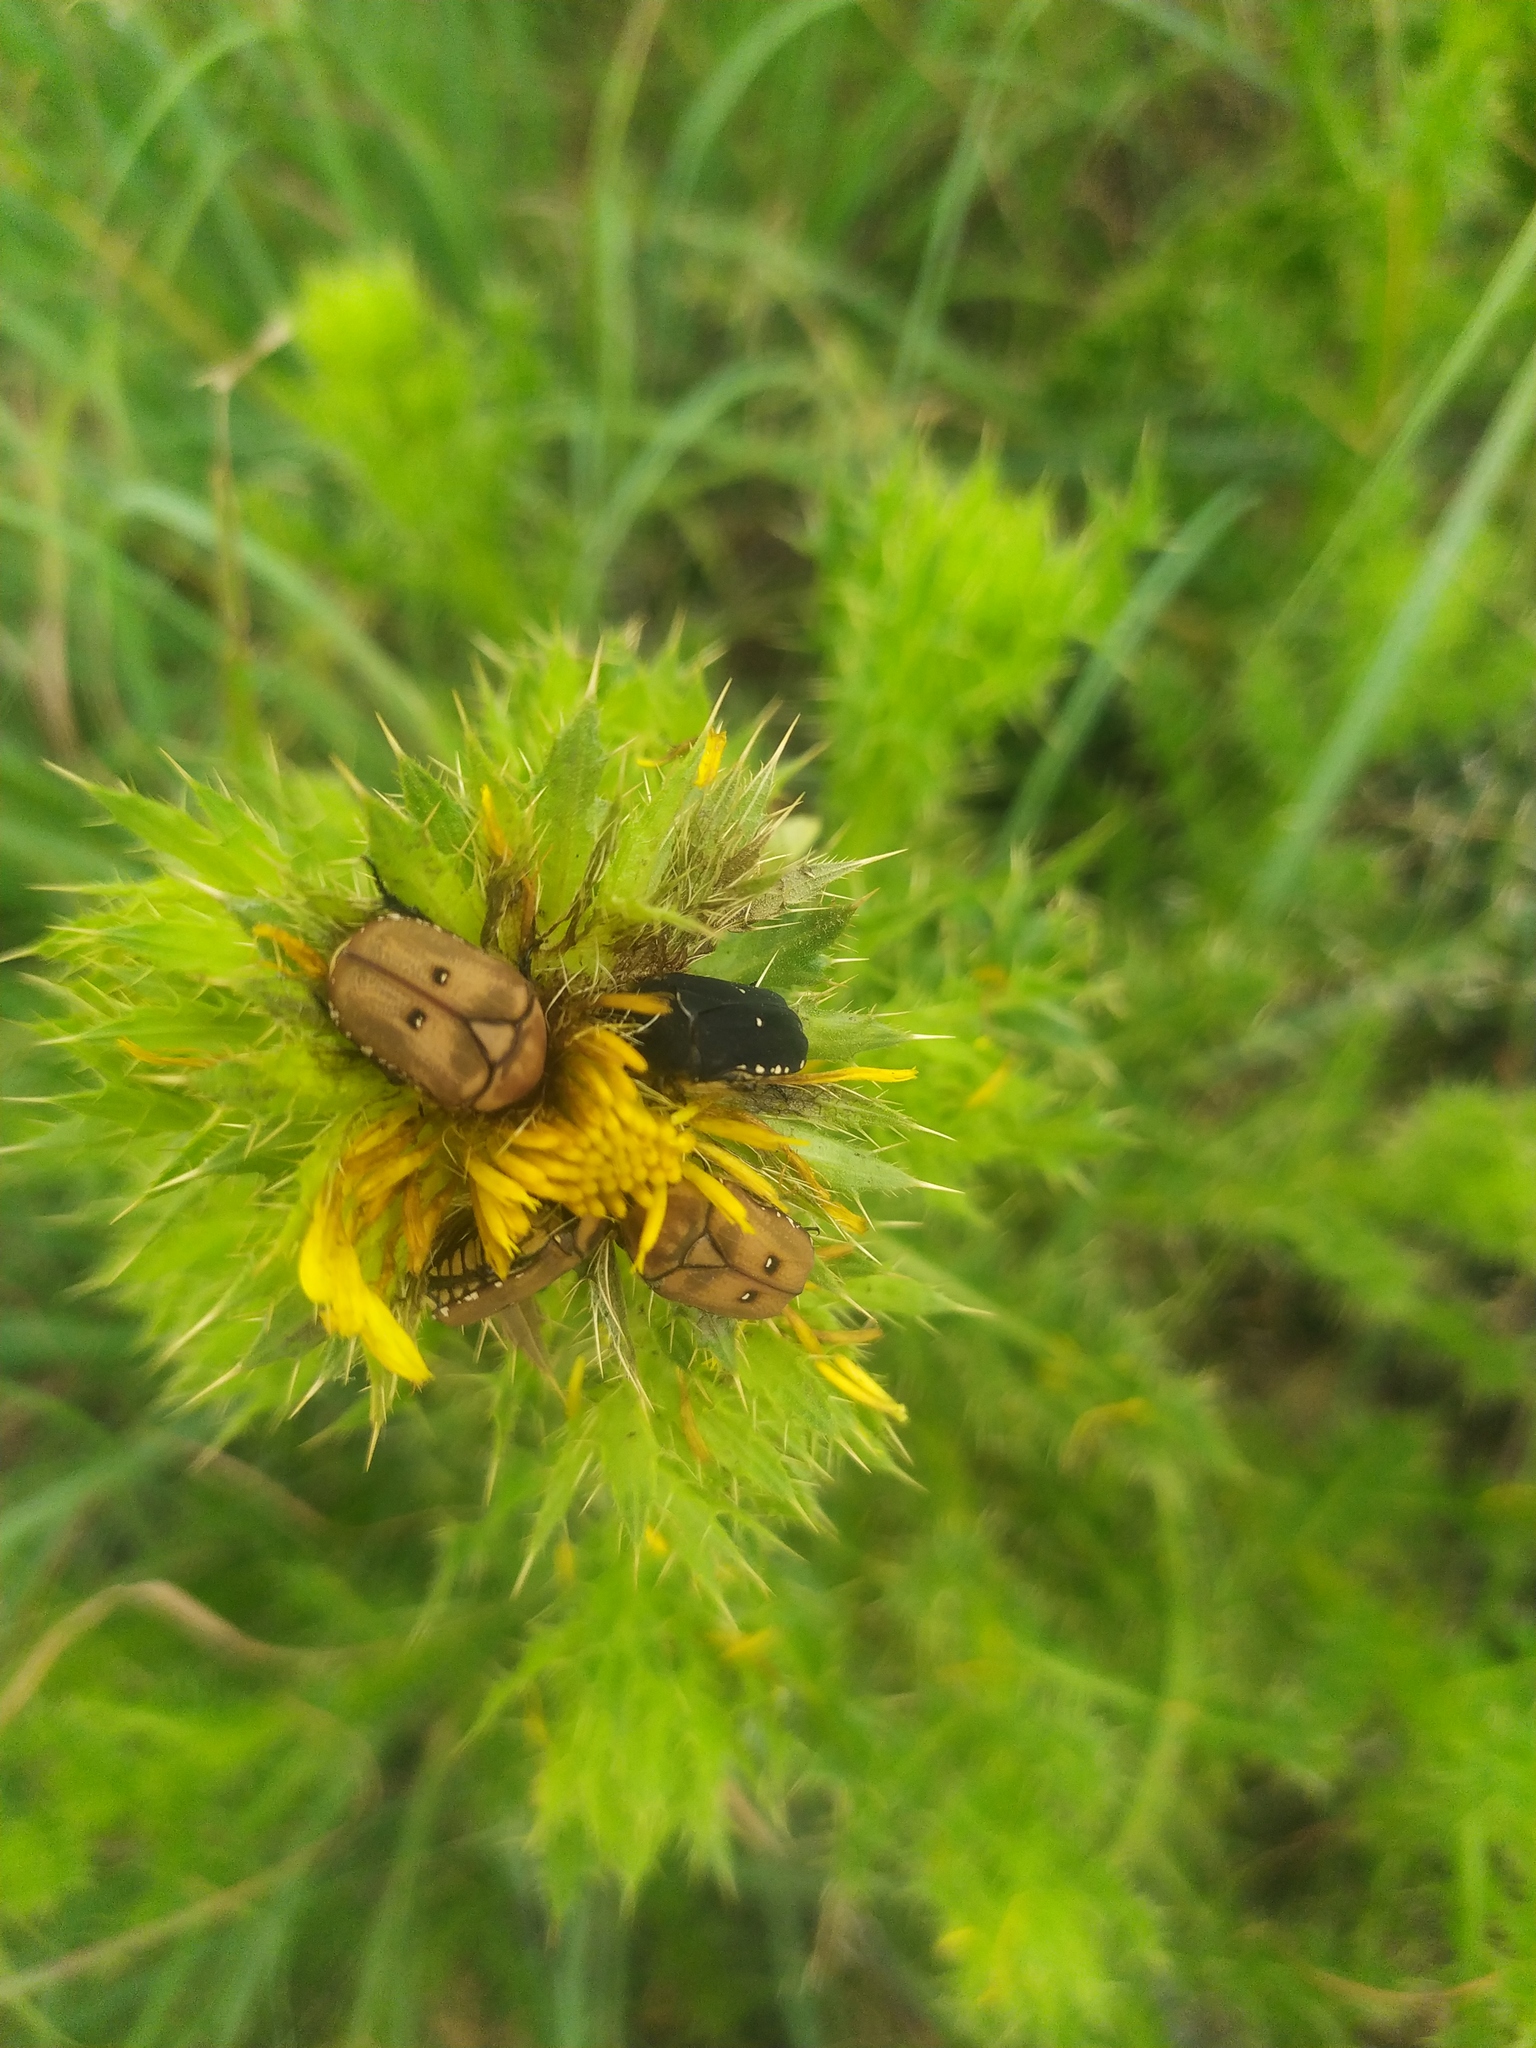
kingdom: Animalia
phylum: Arthropoda
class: Insecta
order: Coleoptera
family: Scarabaeidae
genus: Tephraea
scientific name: Tephraea simonsi
